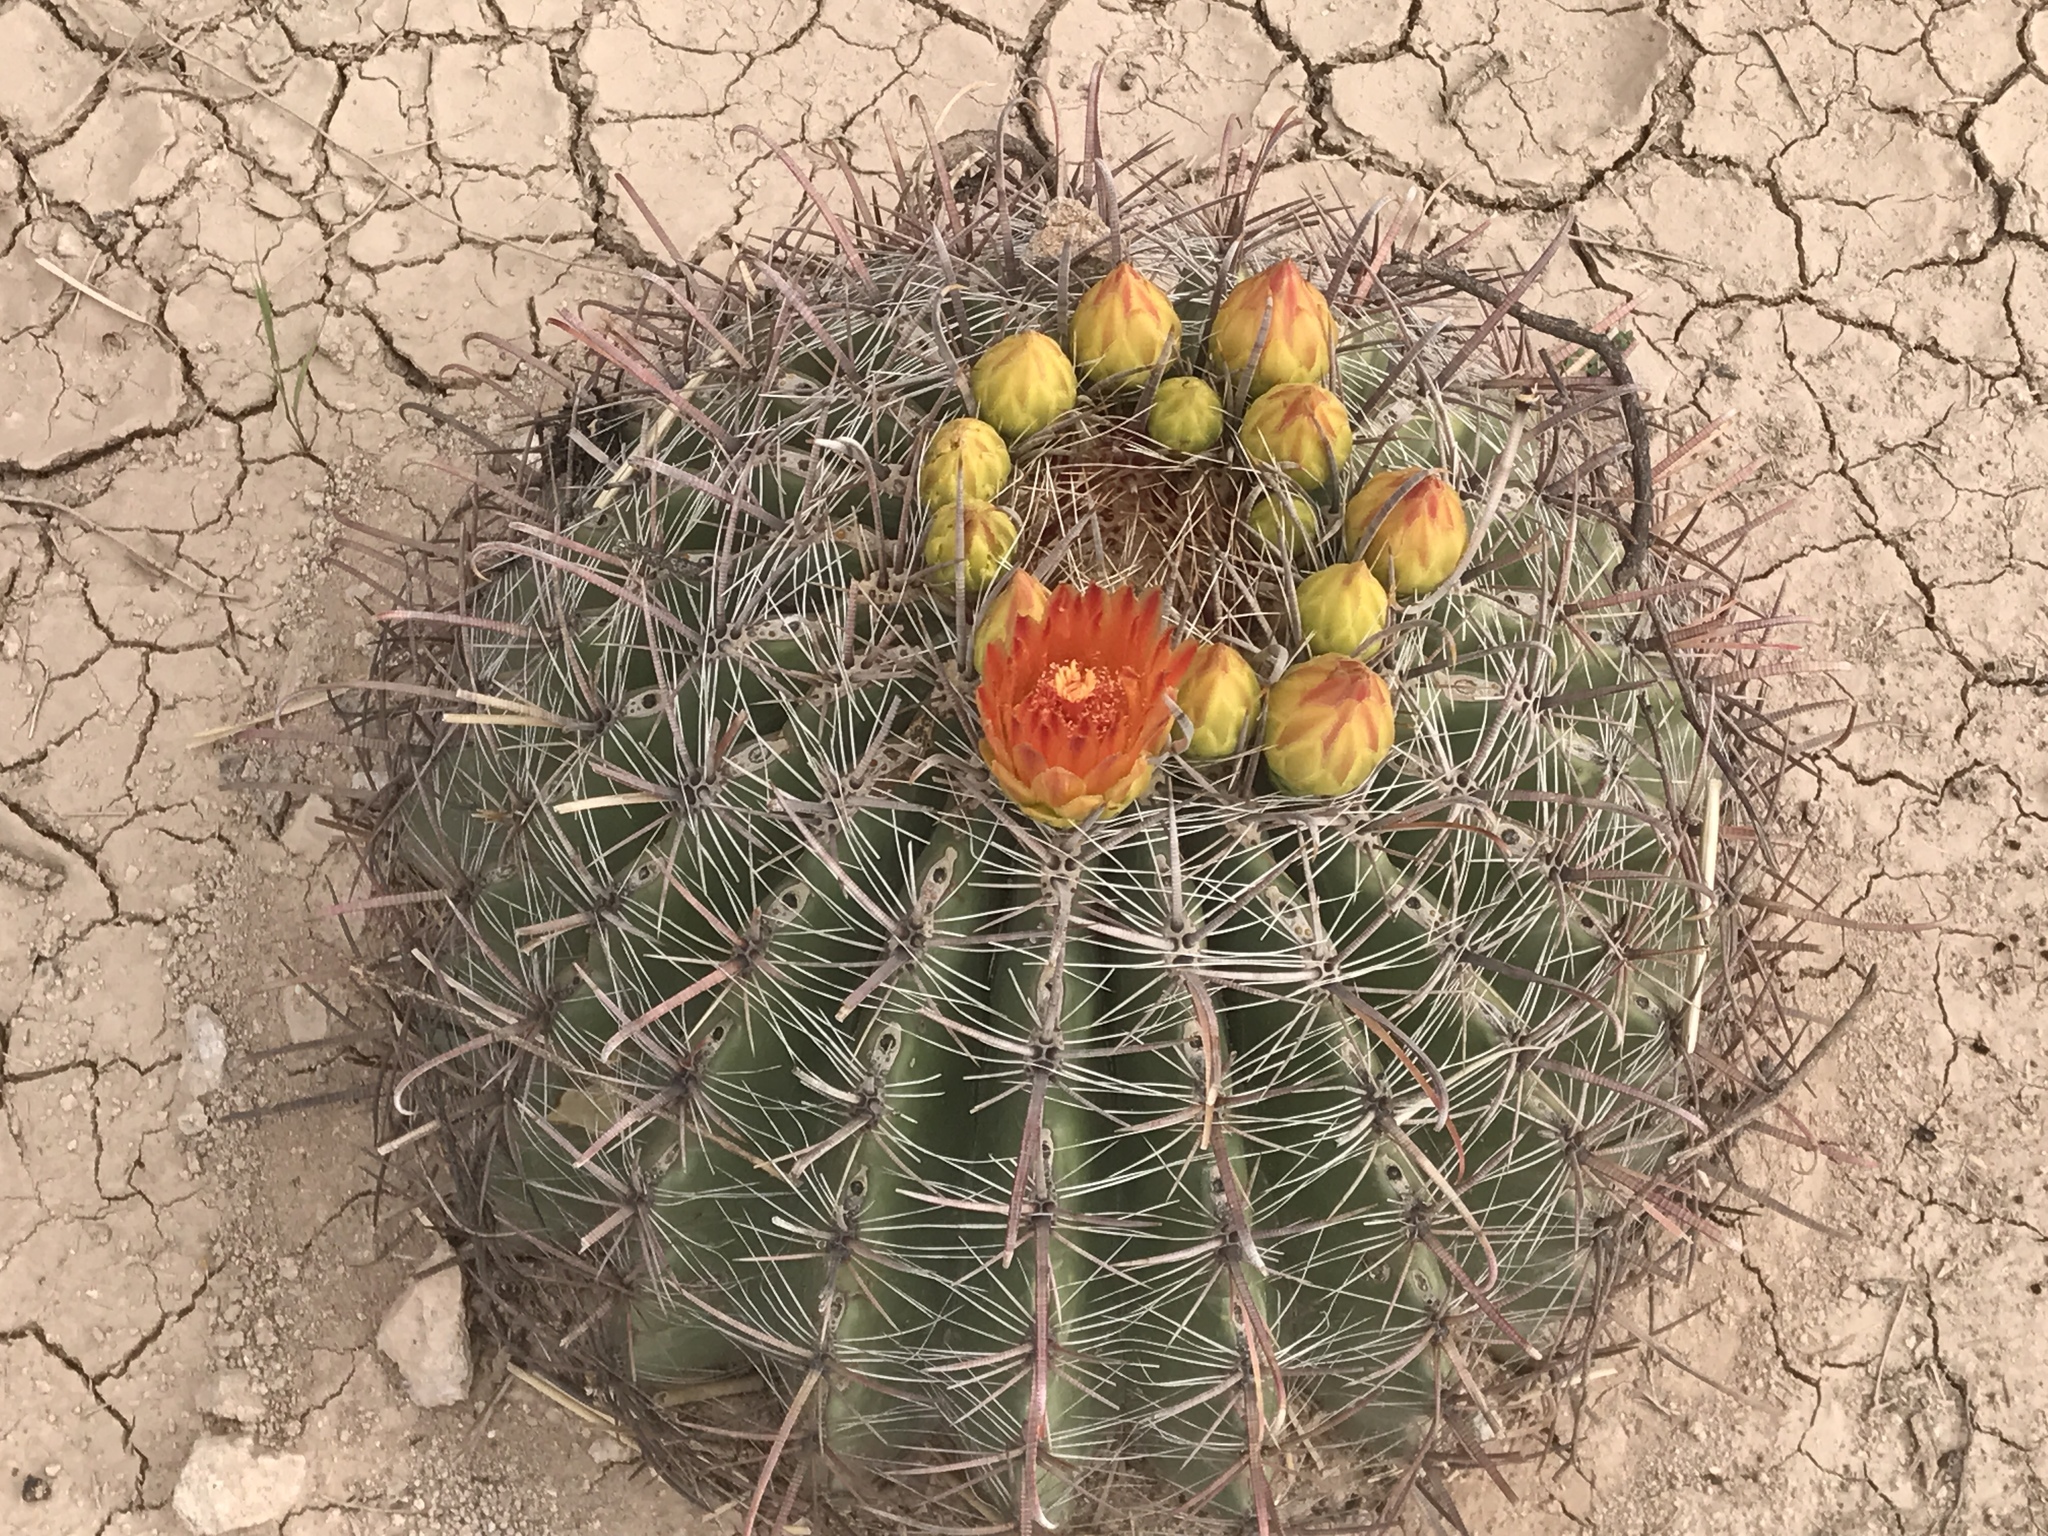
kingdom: Plantae
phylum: Tracheophyta
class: Magnoliopsida
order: Caryophyllales
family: Cactaceae
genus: Ferocactus
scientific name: Ferocactus wislizeni
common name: Candy barrel cactus
